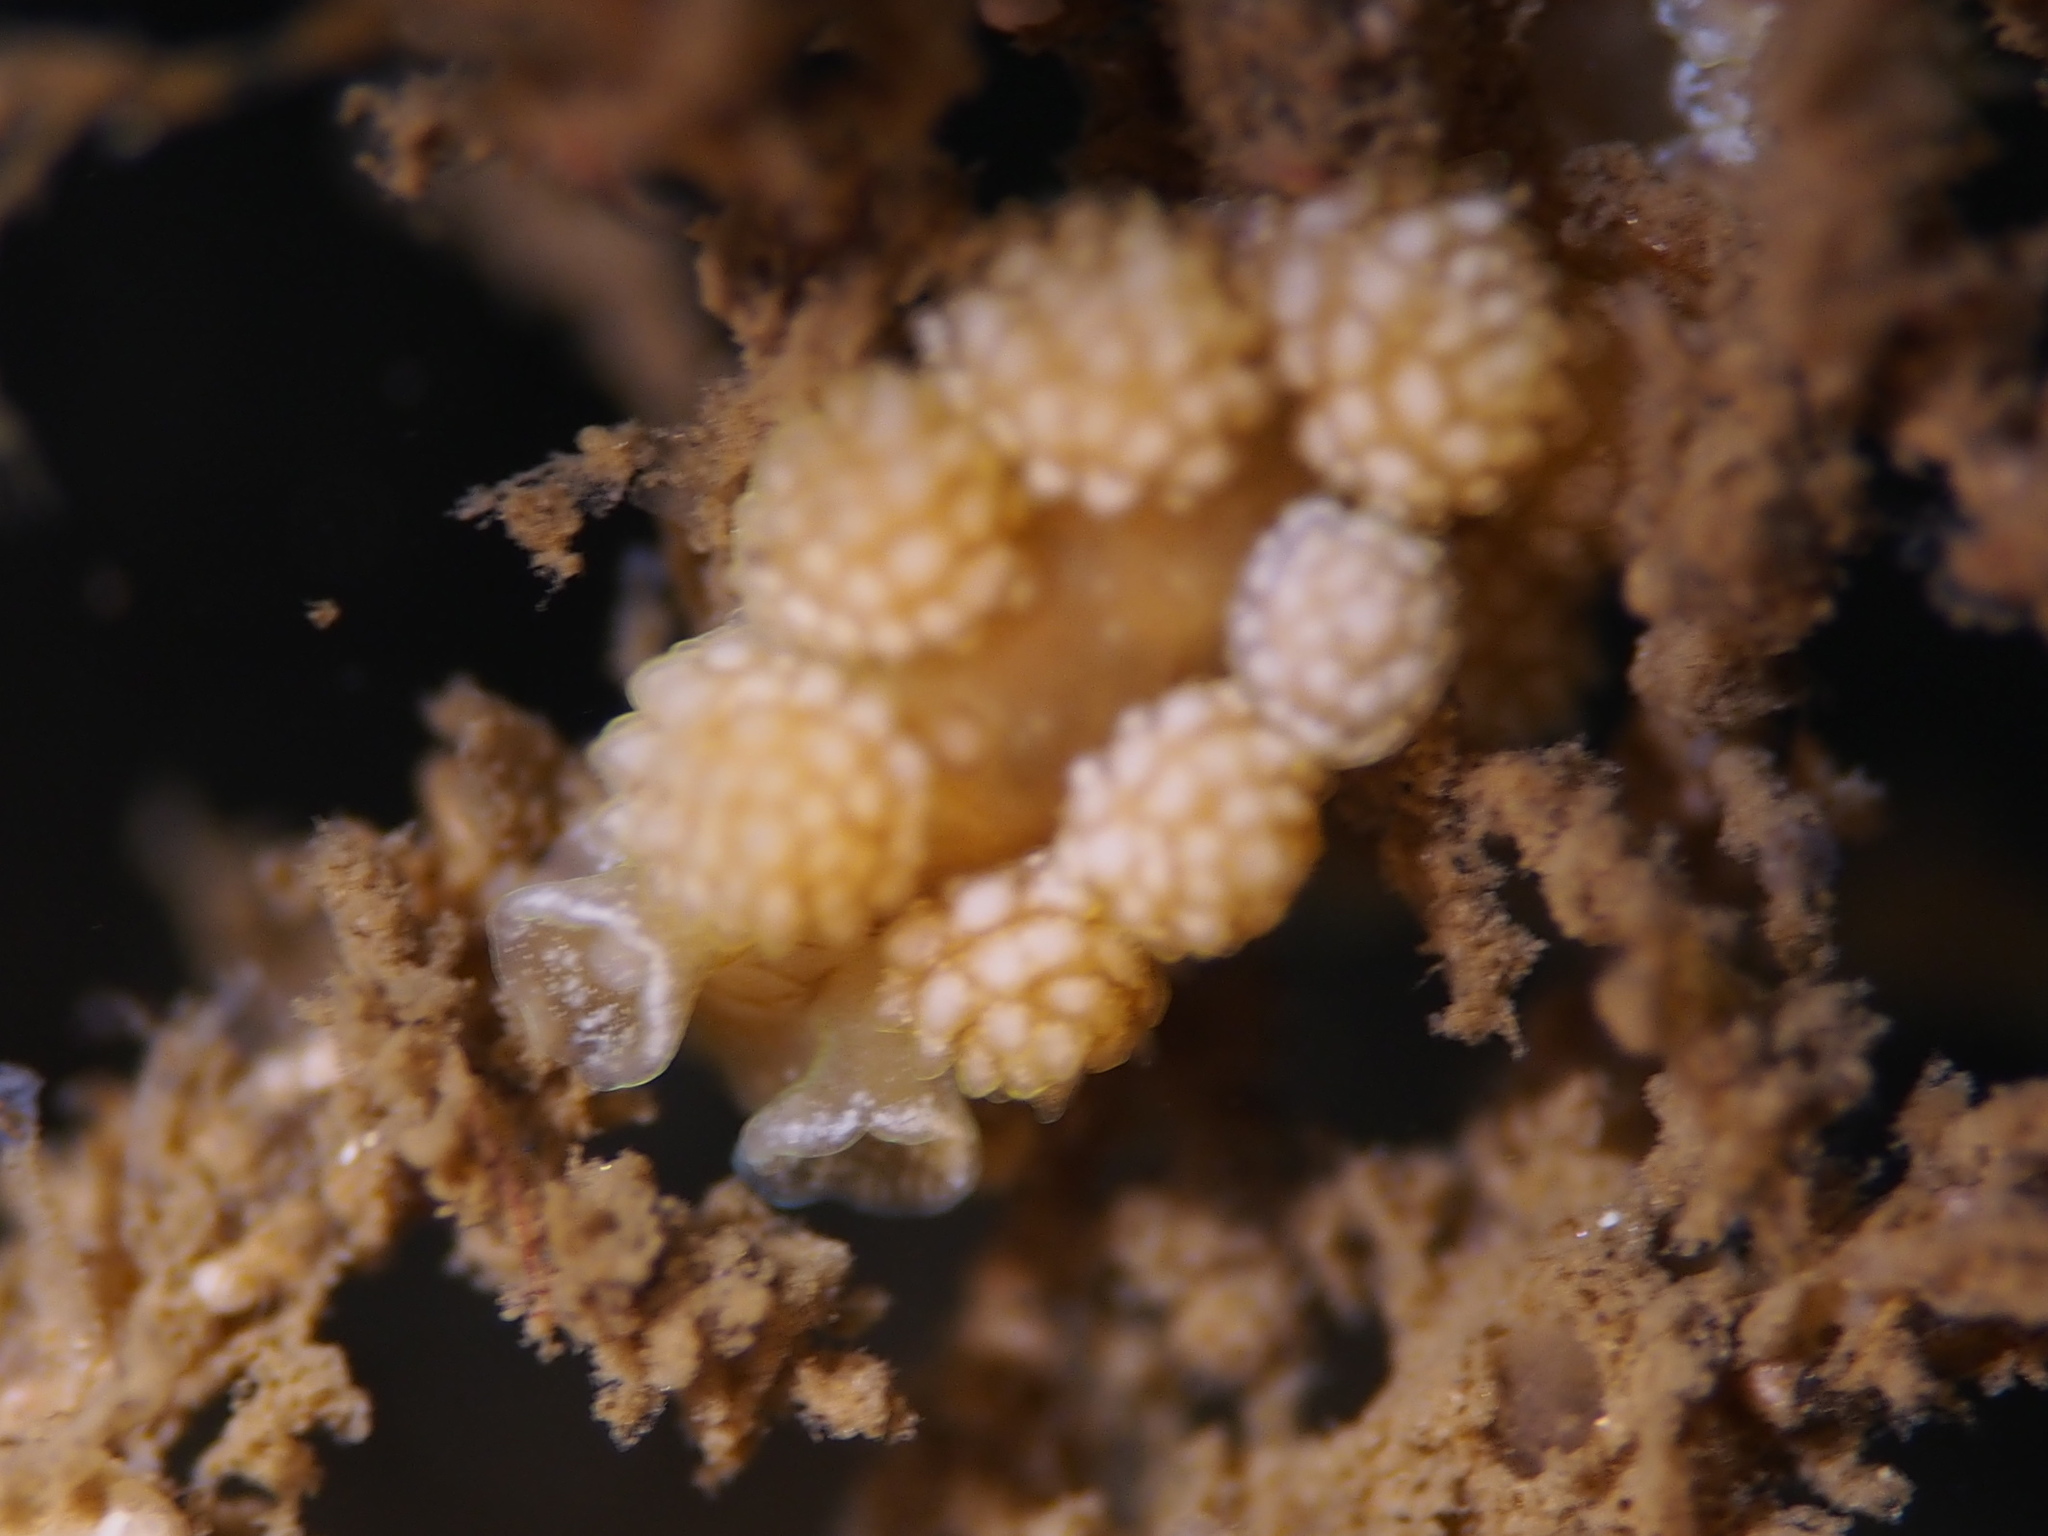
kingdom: Animalia
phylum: Mollusca
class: Gastropoda
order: Nudibranchia
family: Dotidae
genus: Doto
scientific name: Doto fragilis
